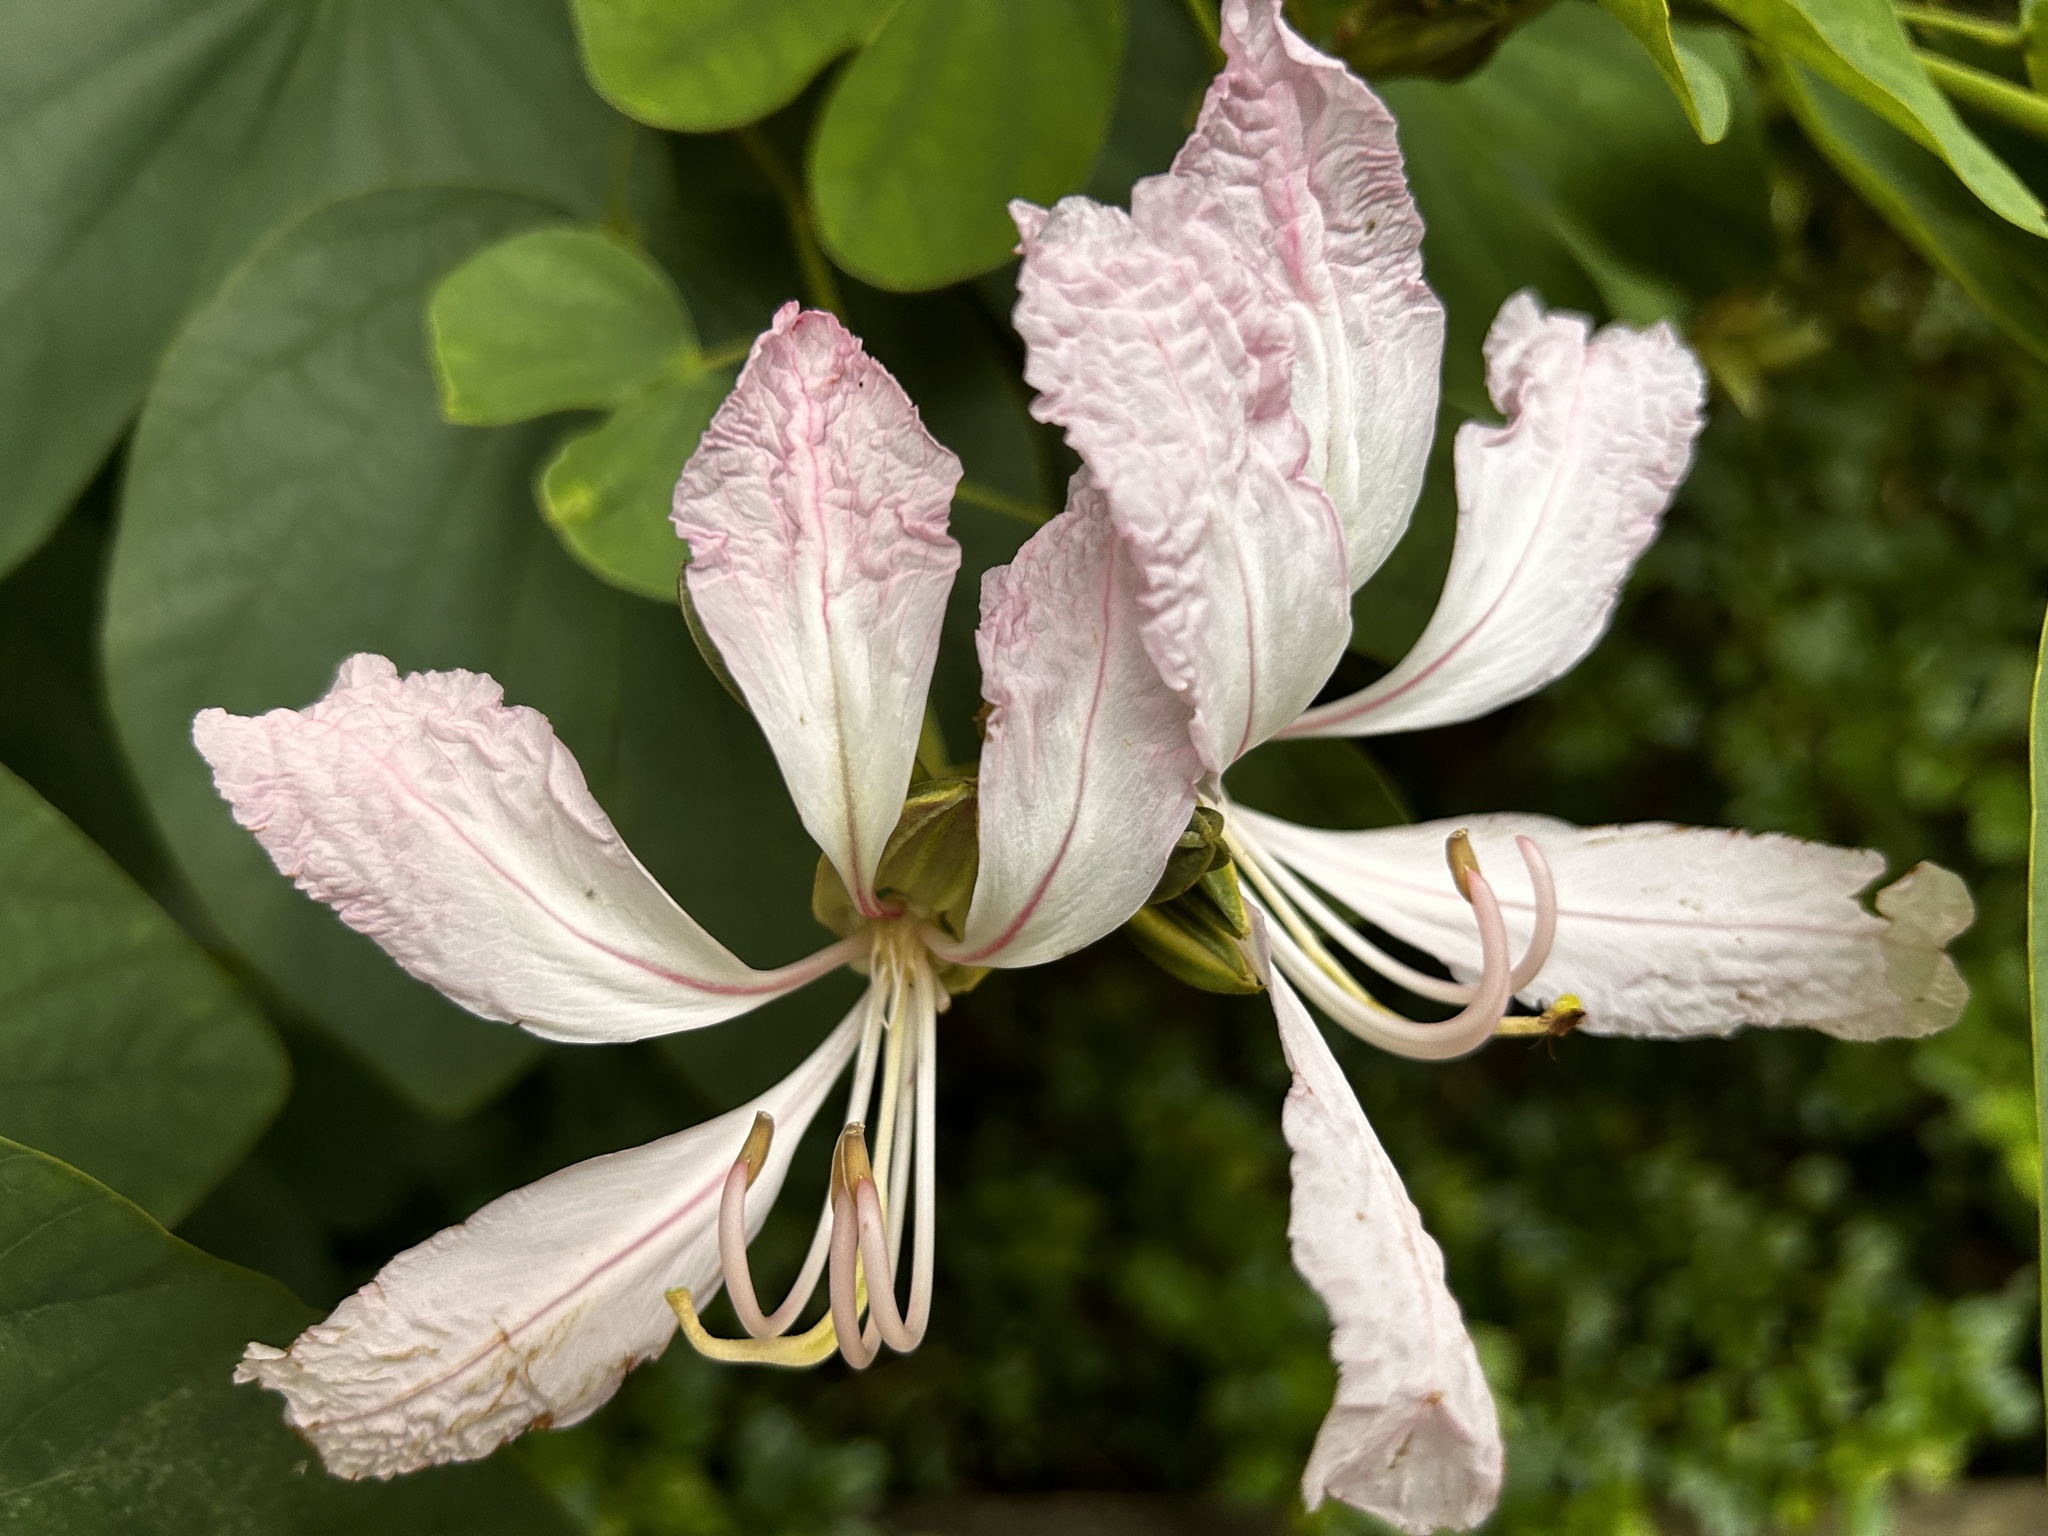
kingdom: Plantae
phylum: Tracheophyta
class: Magnoliopsida
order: Fabales
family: Fabaceae
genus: Bauhinia
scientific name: Bauhinia purpurea
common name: Butterfly-tree
